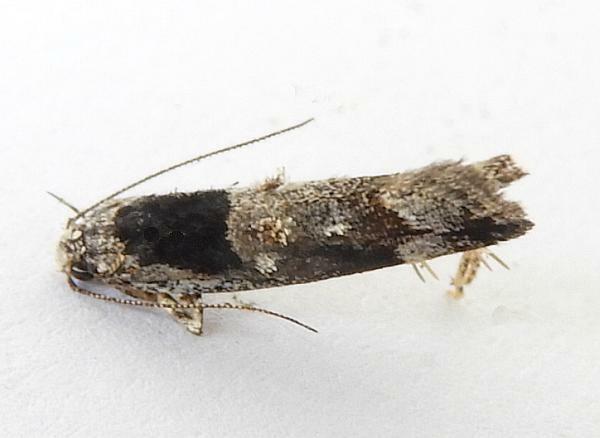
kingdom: Animalia
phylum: Arthropoda
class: Insecta
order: Lepidoptera
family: Gelechiidae
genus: Pseudochelaria
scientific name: Pseudochelaria pennsylvanica
